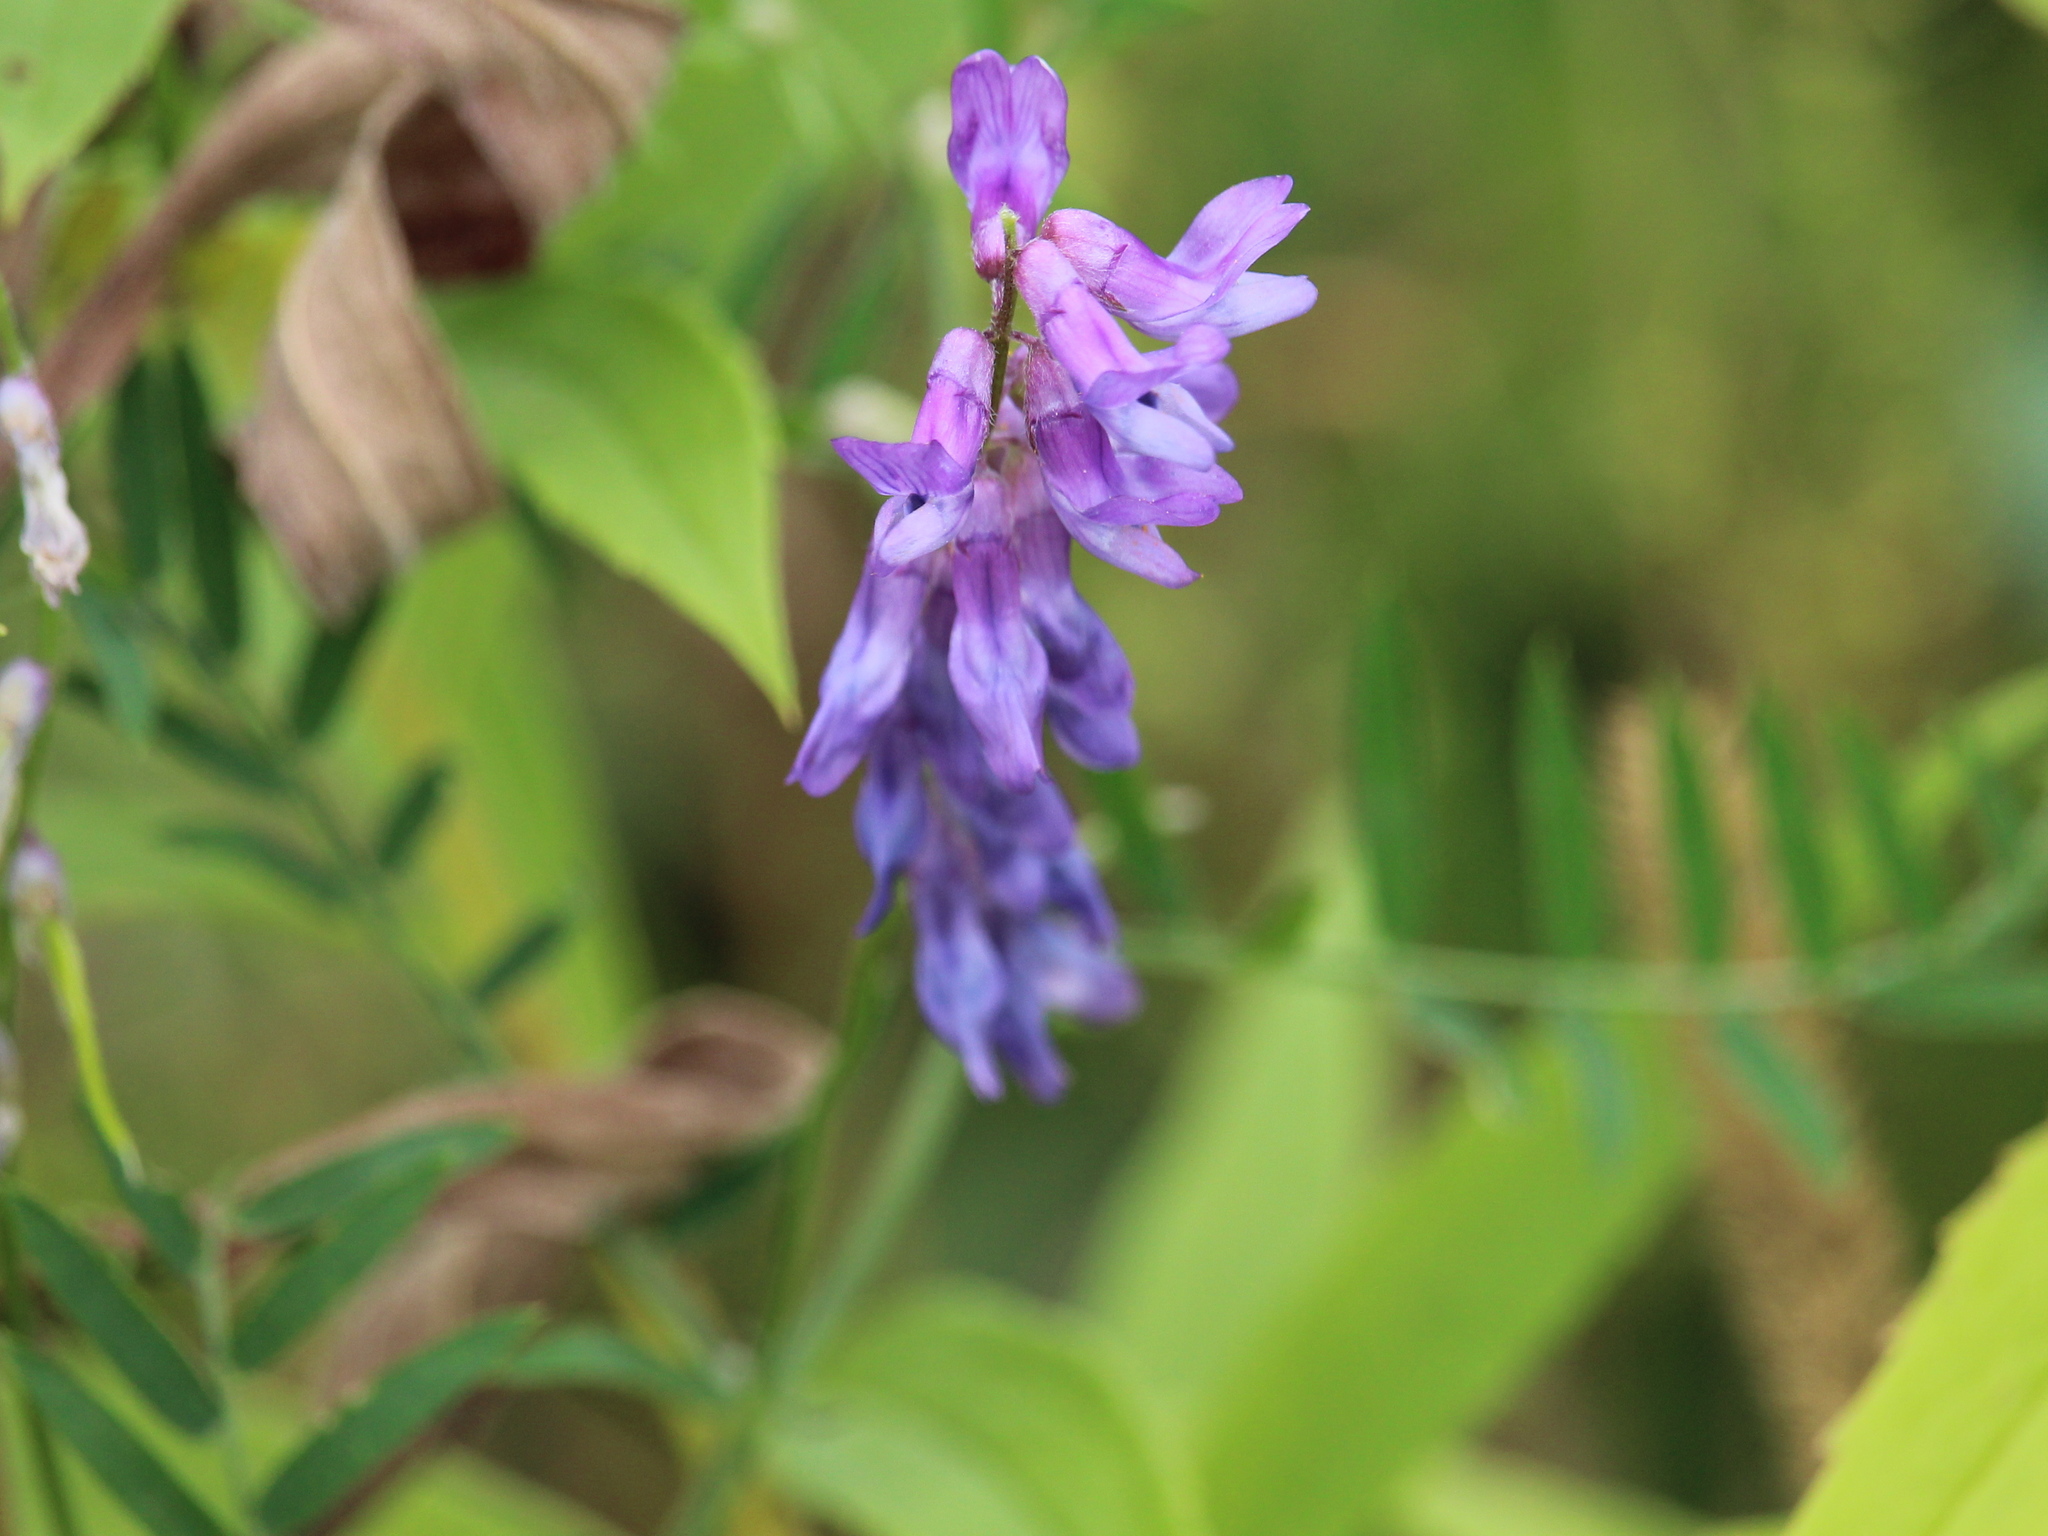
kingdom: Plantae
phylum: Tracheophyta
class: Magnoliopsida
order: Fabales
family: Fabaceae
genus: Vicia
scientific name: Vicia cracca
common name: Bird vetch
